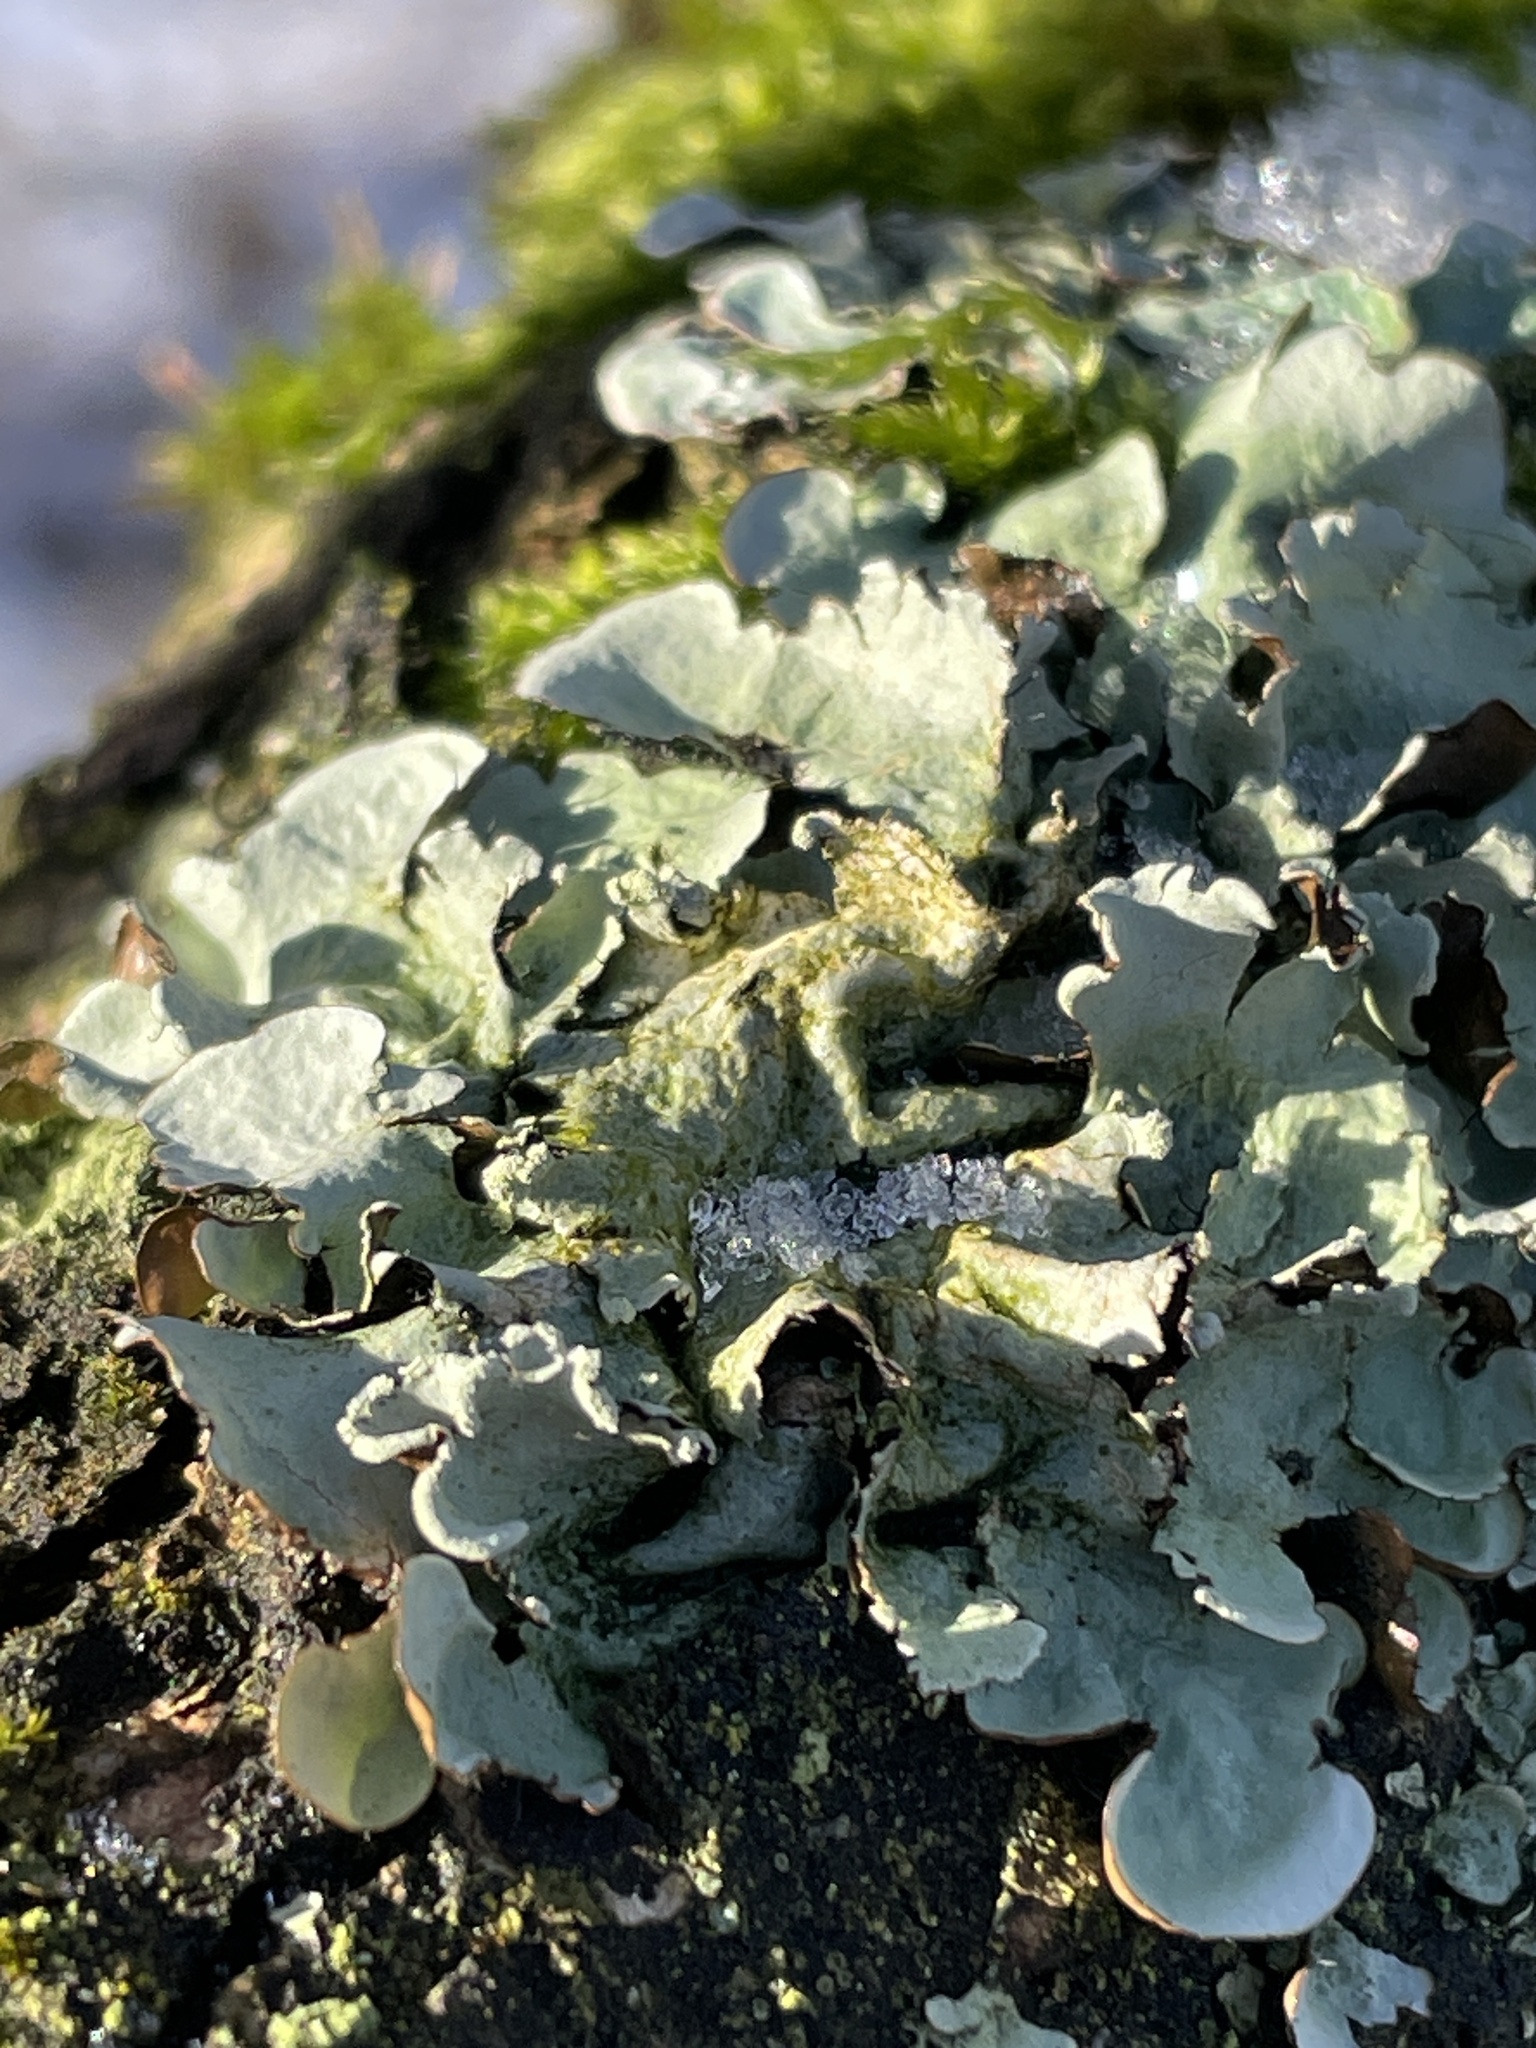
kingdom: Fungi
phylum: Ascomycota
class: Lecanoromycetes
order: Lecanorales
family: Parmeliaceae
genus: Parmotrema
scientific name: Parmotrema perlatum
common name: Black stone flower
